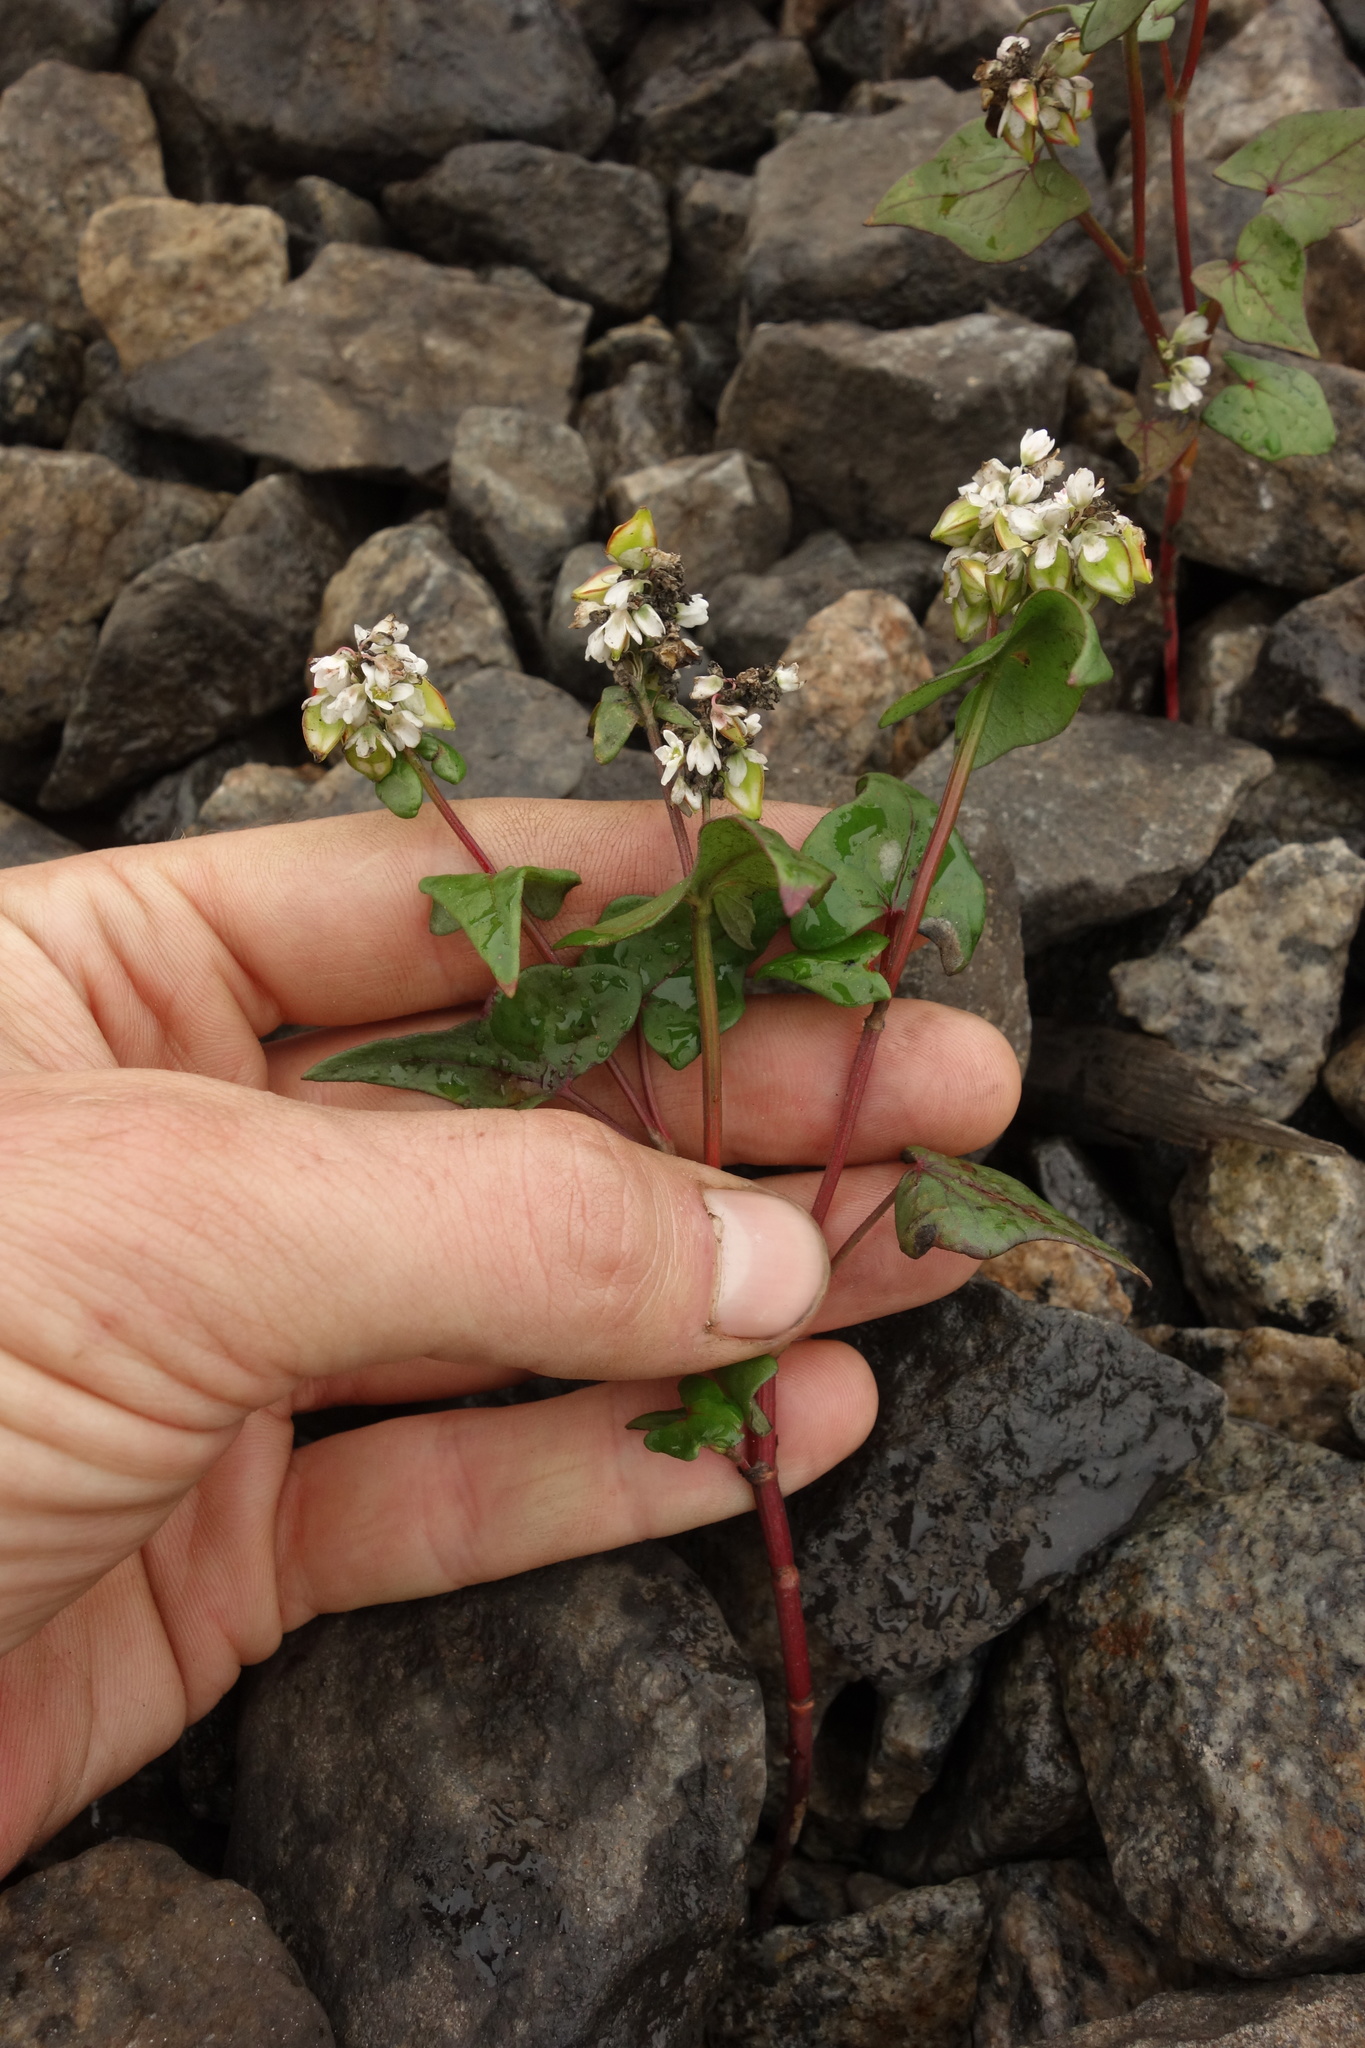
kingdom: Plantae
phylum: Tracheophyta
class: Magnoliopsida
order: Caryophyllales
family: Polygonaceae
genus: Fagopyrum
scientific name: Fagopyrum esculentum
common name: Buckwheat
